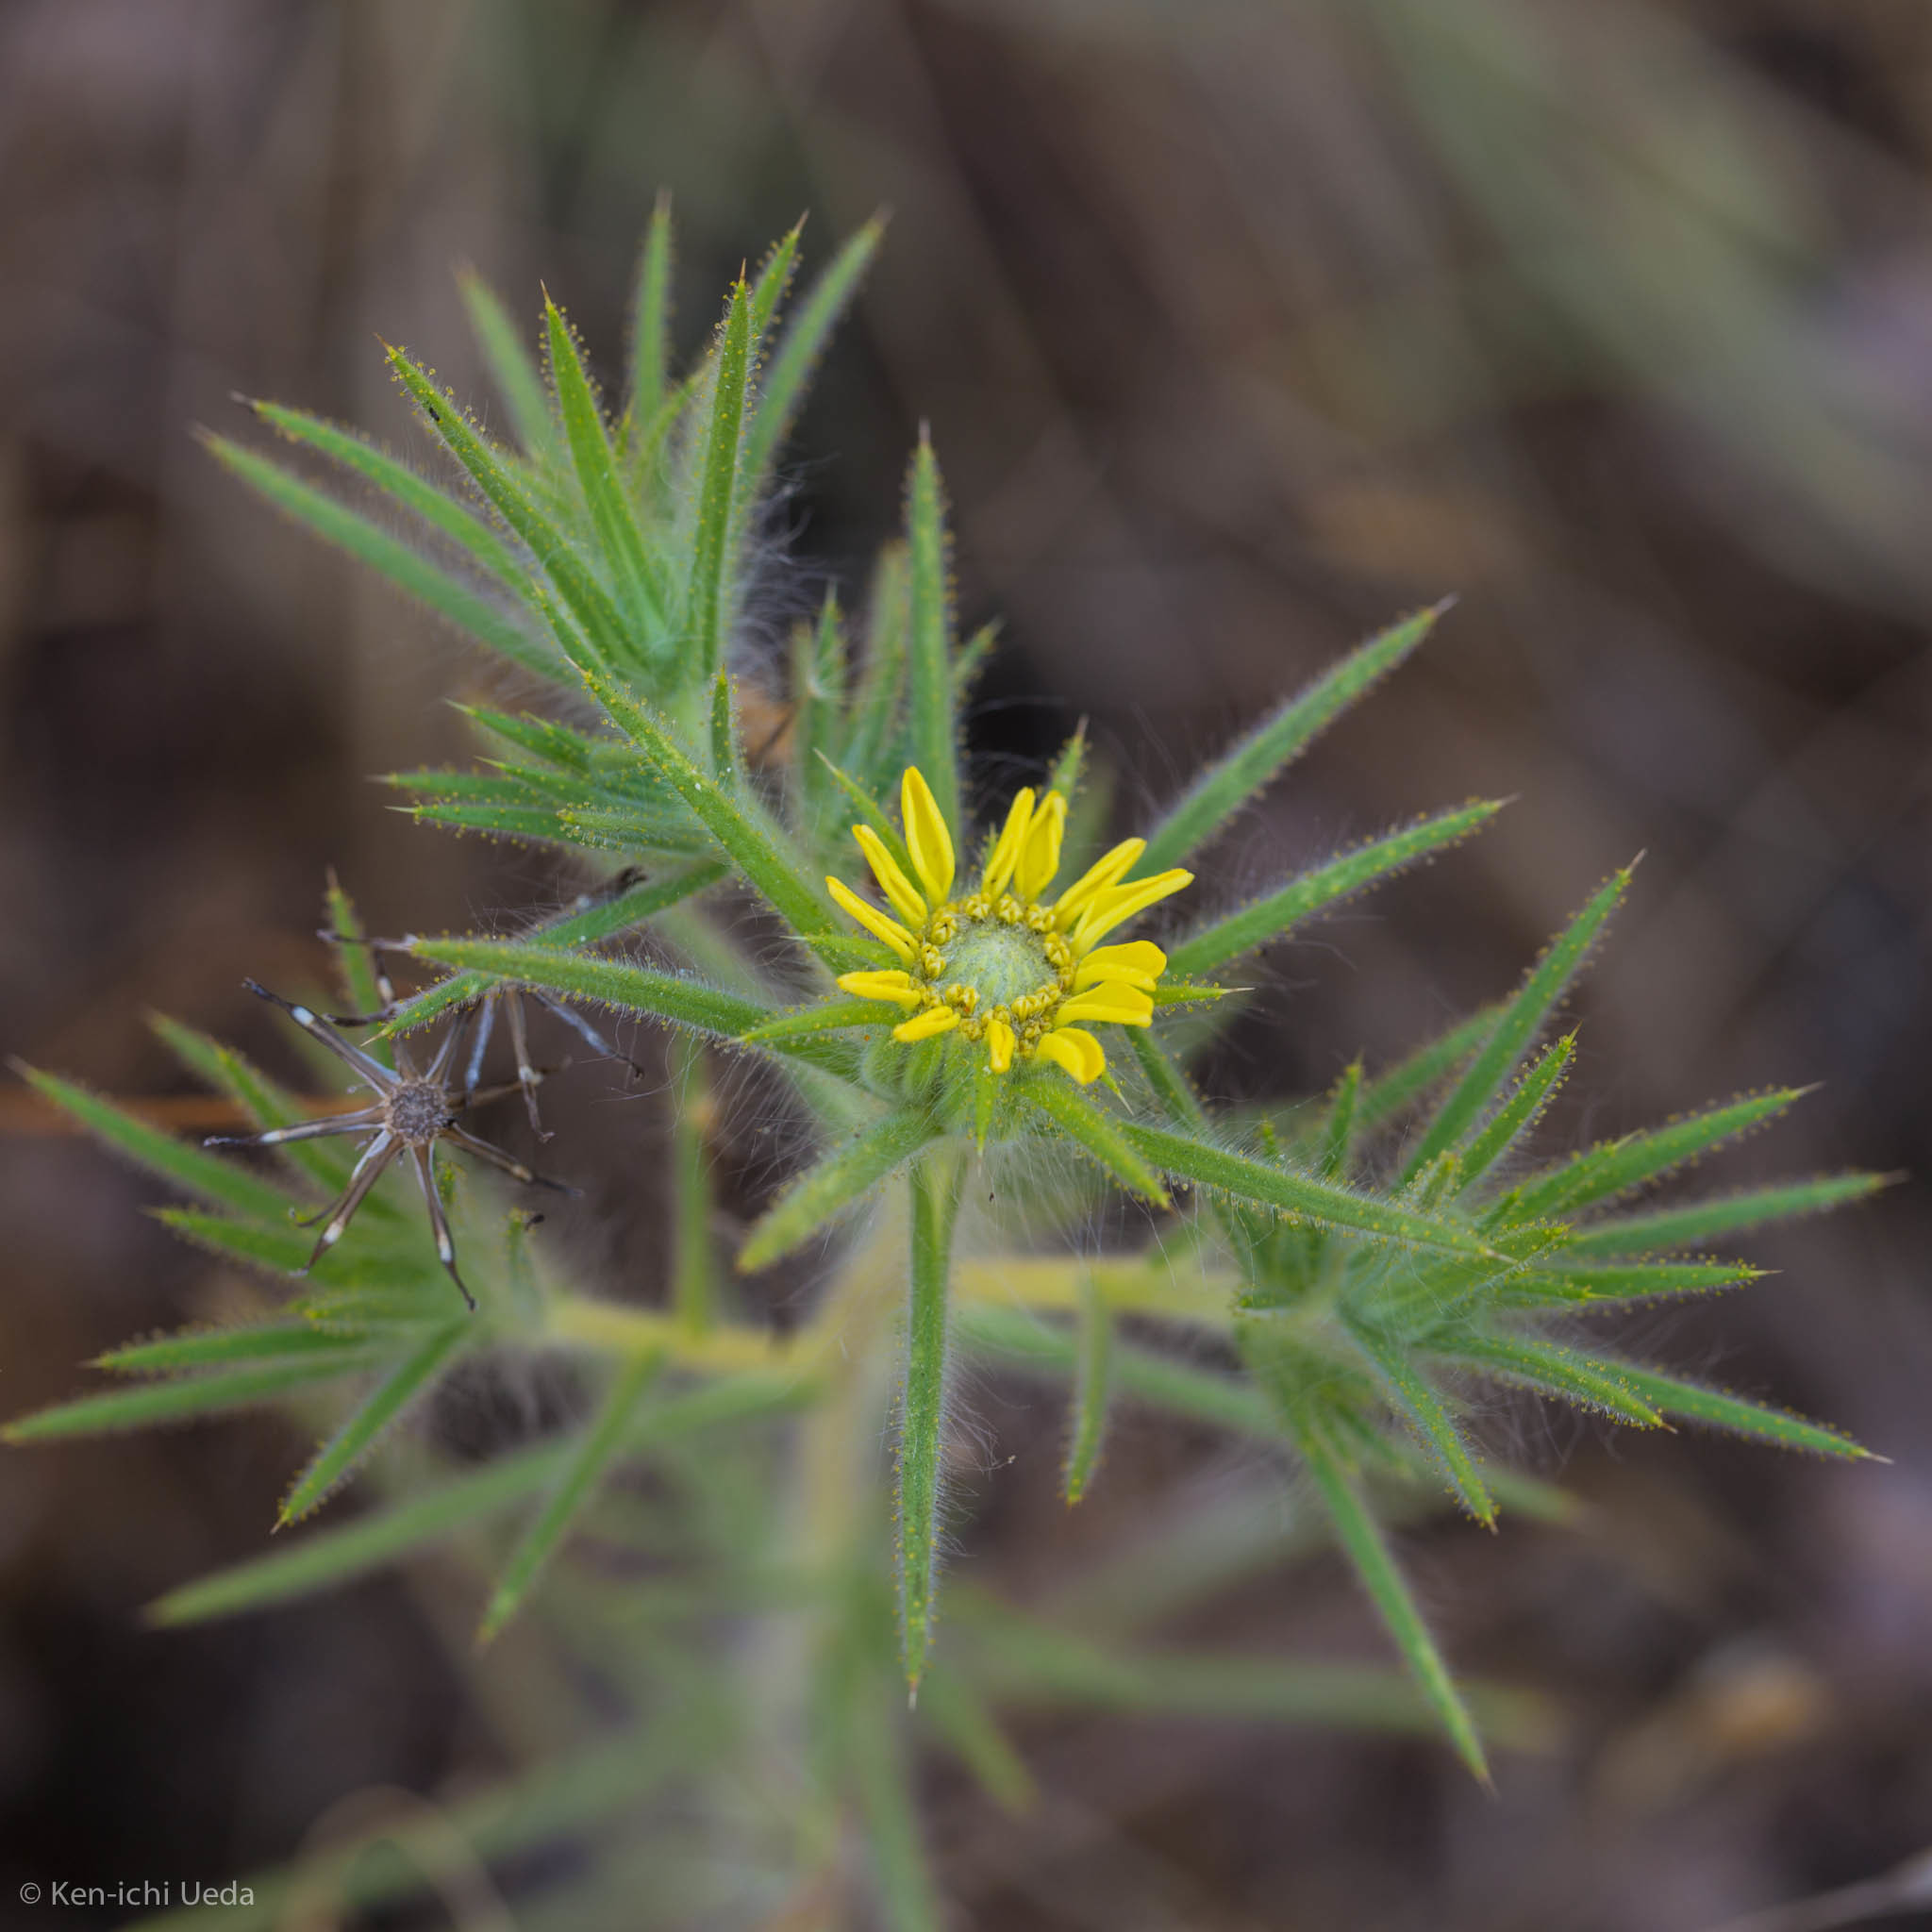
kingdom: Plantae
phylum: Tracheophyta
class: Magnoliopsida
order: Asterales
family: Asteraceae
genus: Centromadia
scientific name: Centromadia fitchii
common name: Fitch's spikeweed
